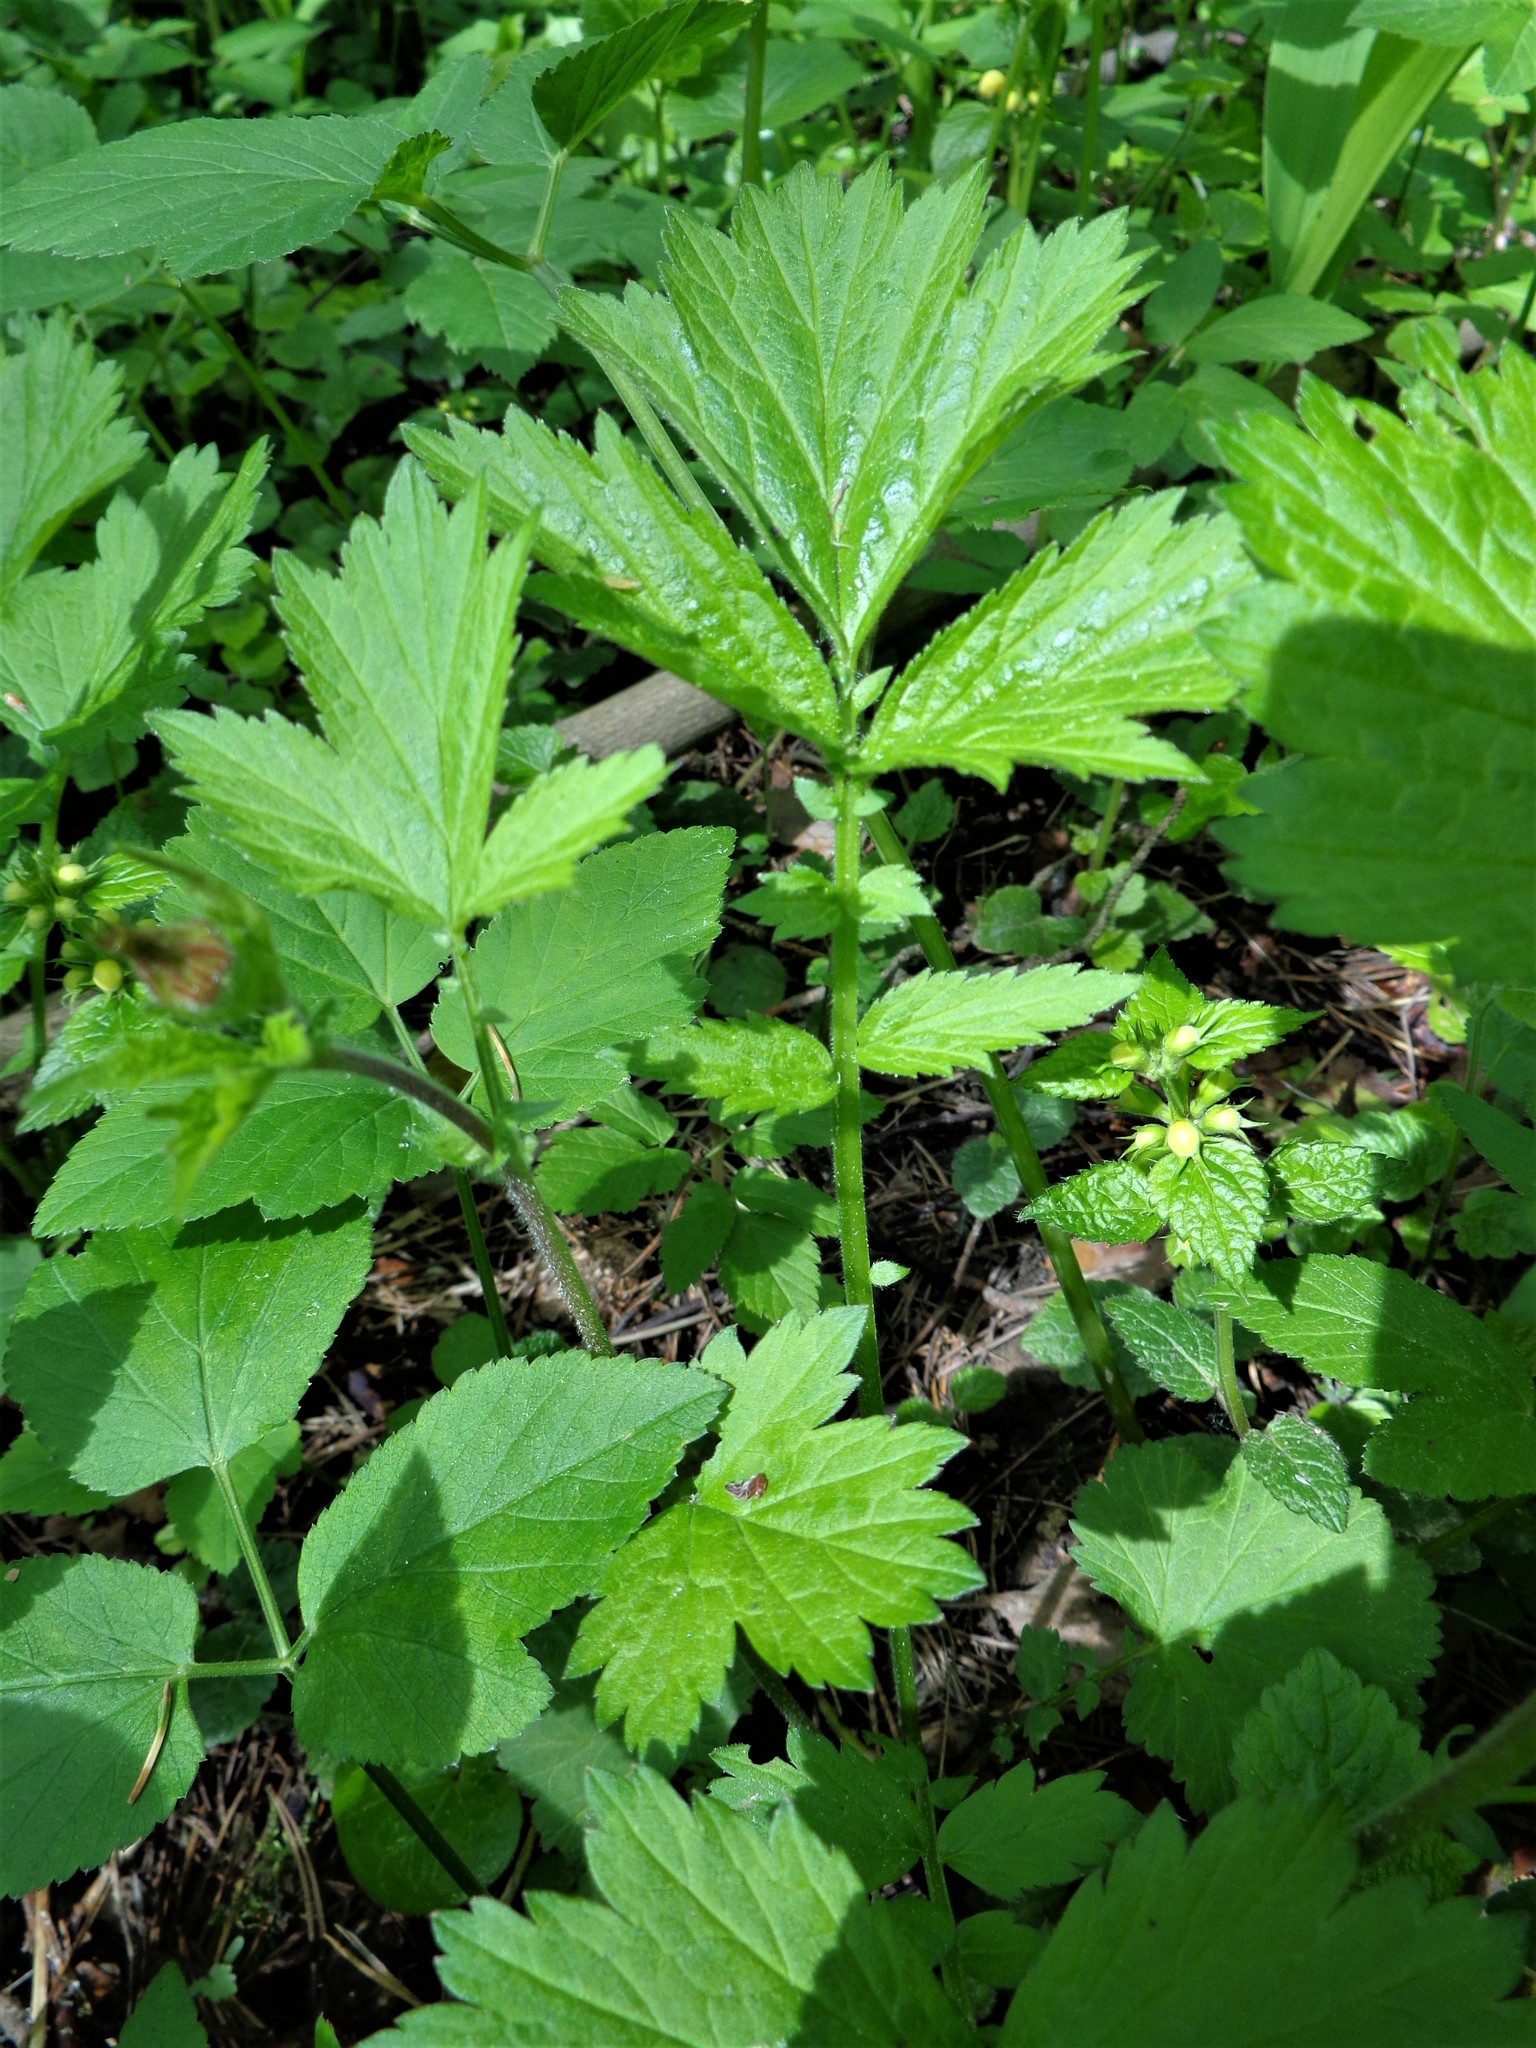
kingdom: Plantae
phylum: Tracheophyta
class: Magnoliopsida
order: Rosales
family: Rosaceae
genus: Geum
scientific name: Geum rivale
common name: Water avens
